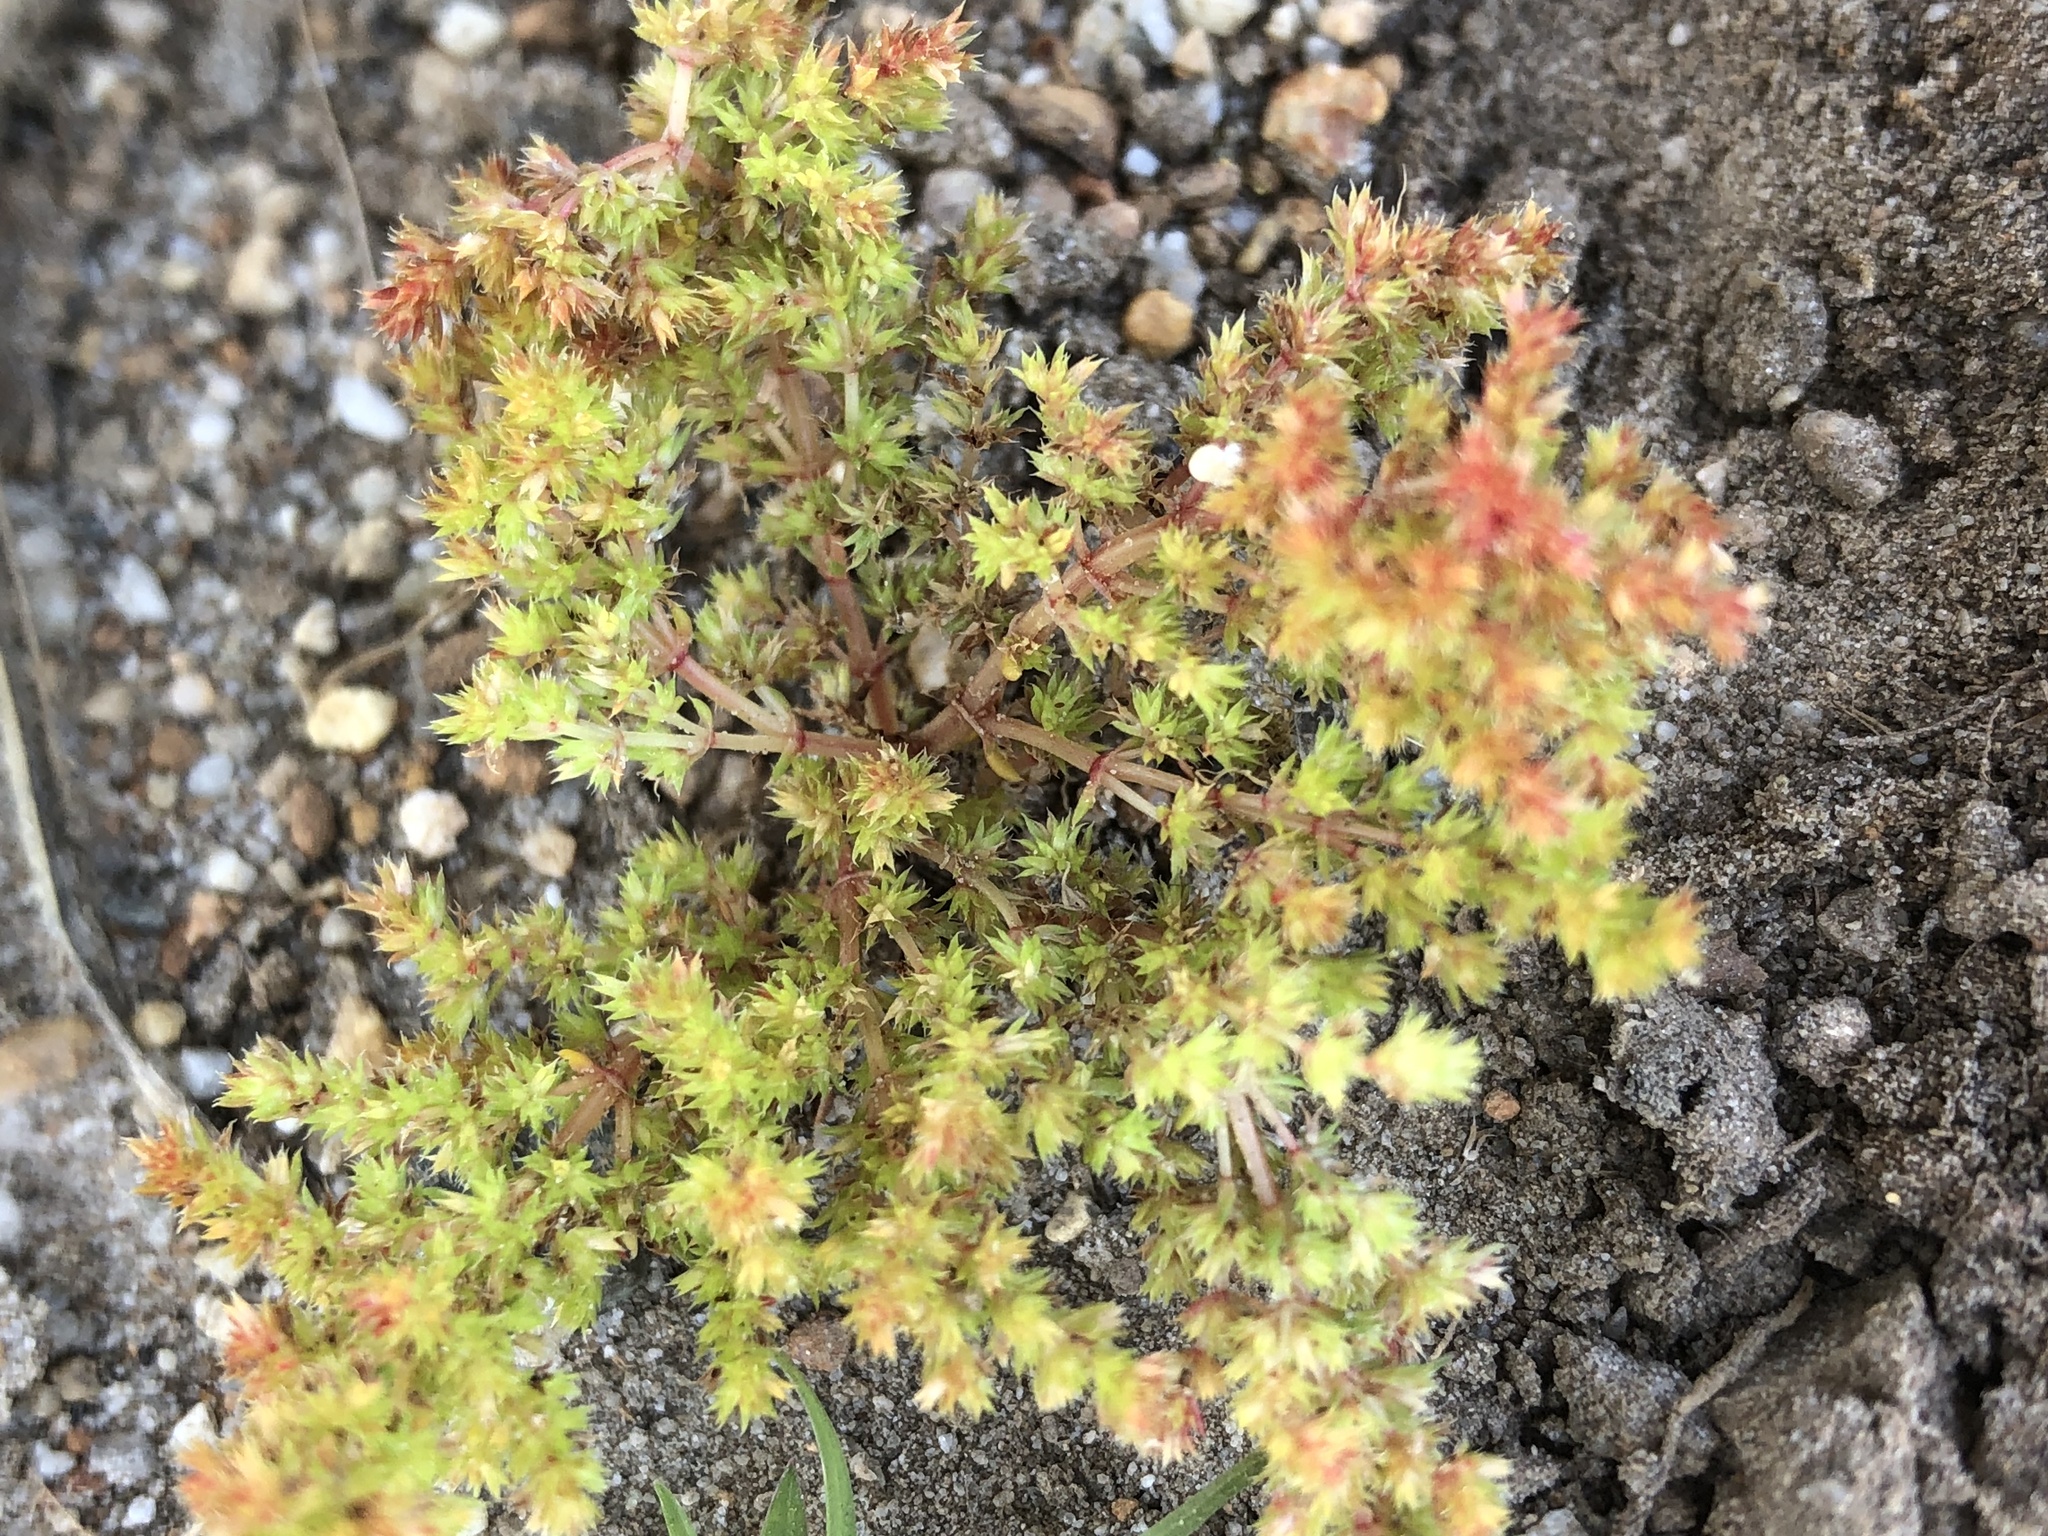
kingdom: Plantae
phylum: Tracheophyta
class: Magnoliopsida
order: Saxifragales
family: Crassulaceae
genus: Crassula
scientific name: Crassula glomerata
